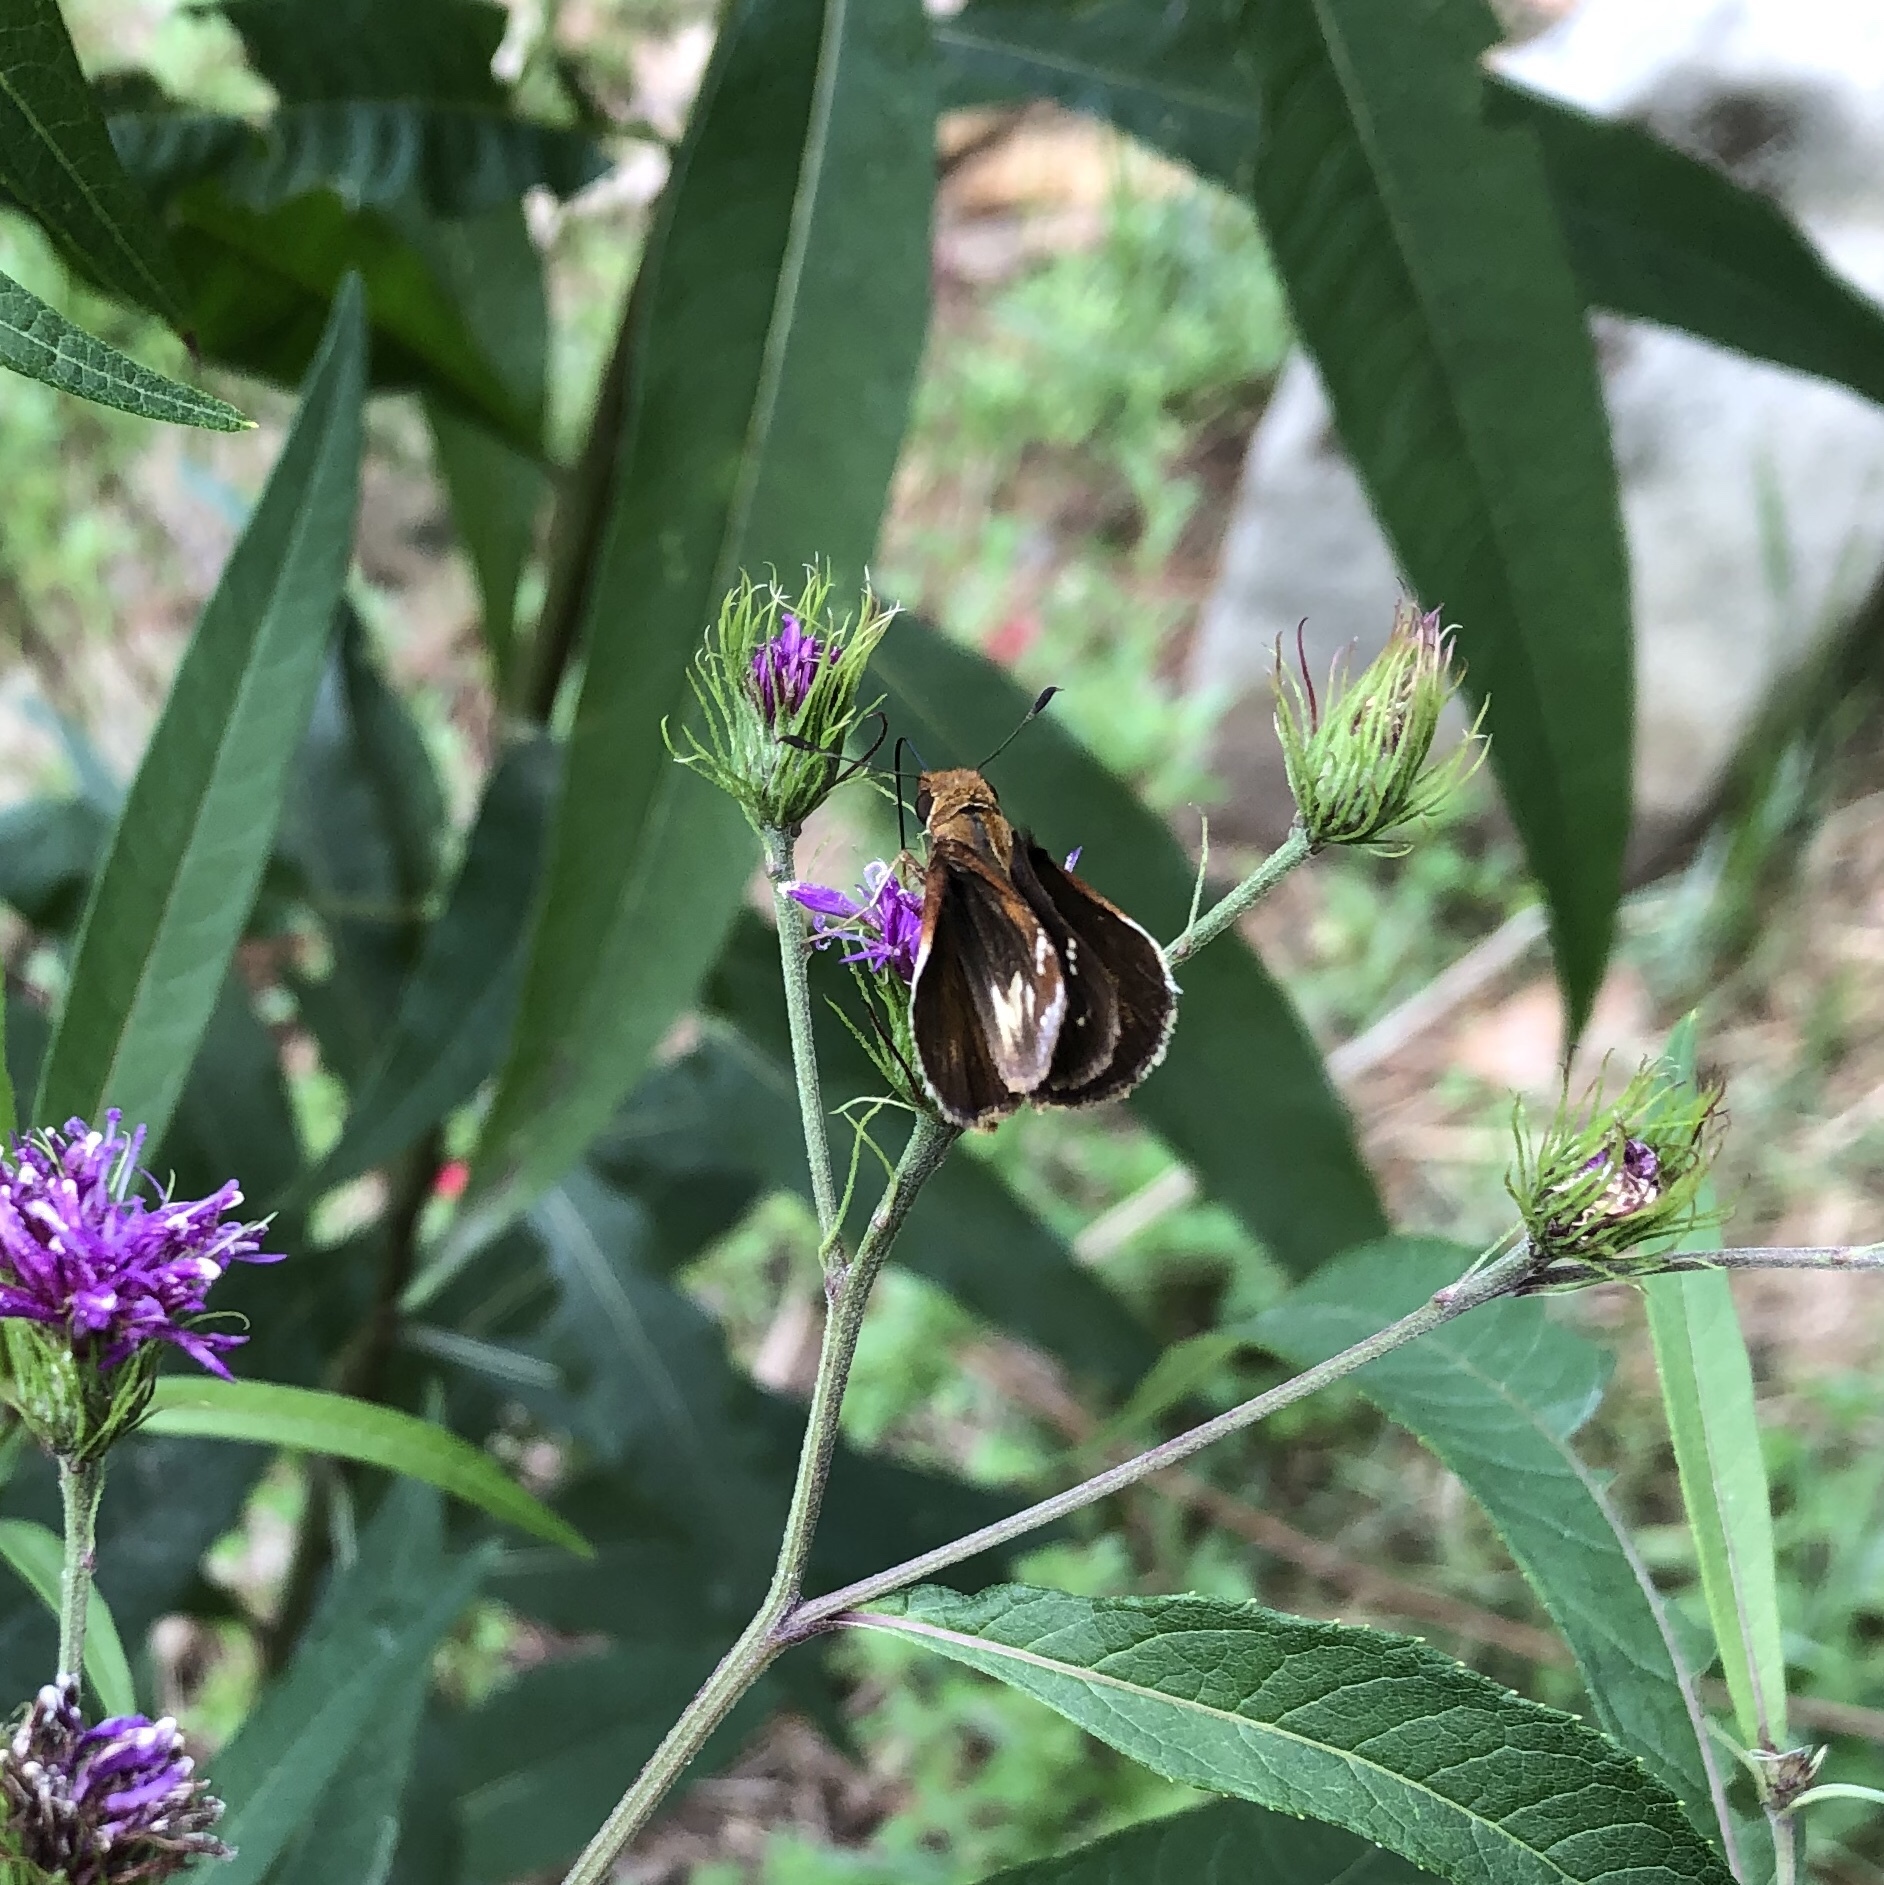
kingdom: Animalia
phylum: Arthropoda
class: Insecta
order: Lepidoptera
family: Hesperiidae
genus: Lon
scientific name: Lon zabulon
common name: Zabulon skipper
